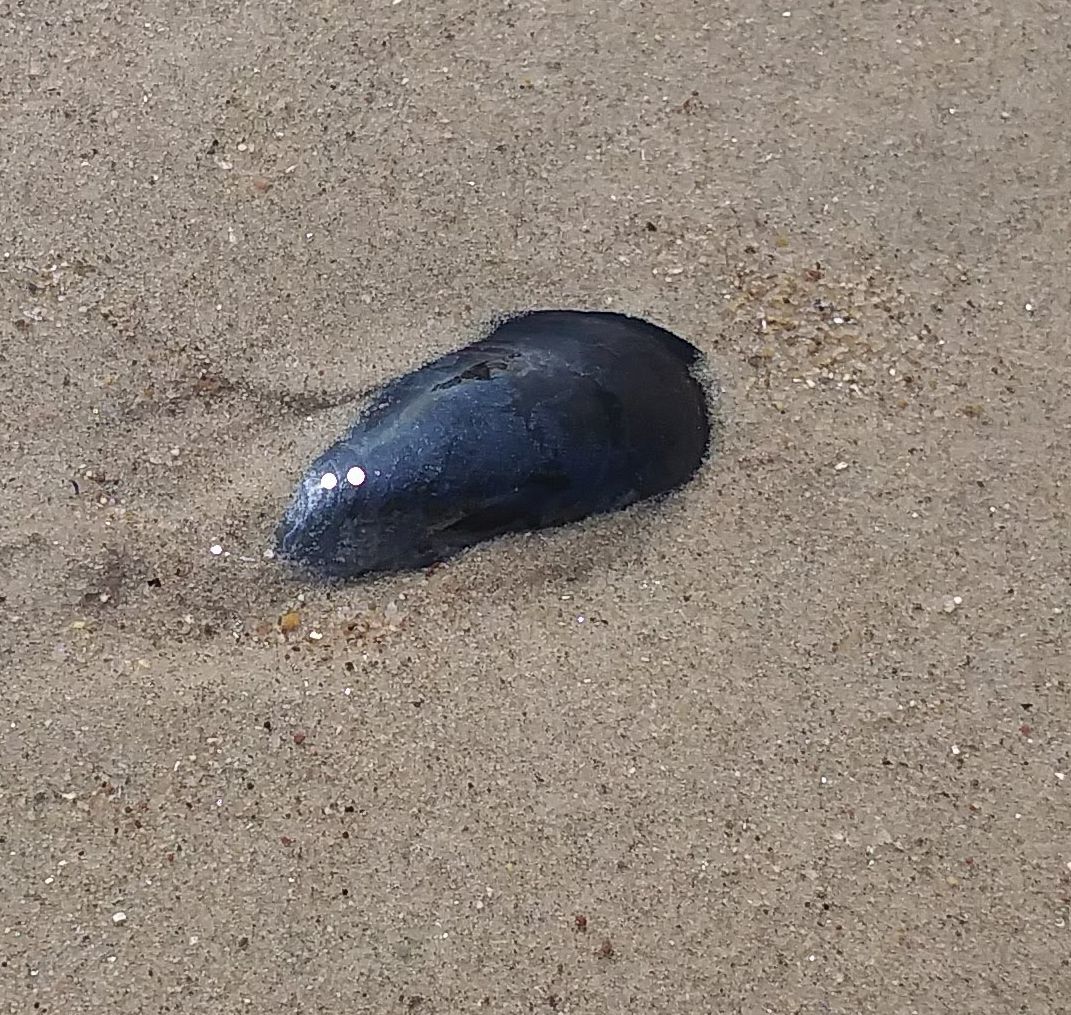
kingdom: Animalia
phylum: Mollusca
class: Bivalvia
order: Mytilida
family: Mytilidae
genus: Mytilus
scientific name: Mytilus edulis
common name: Blue mussel
